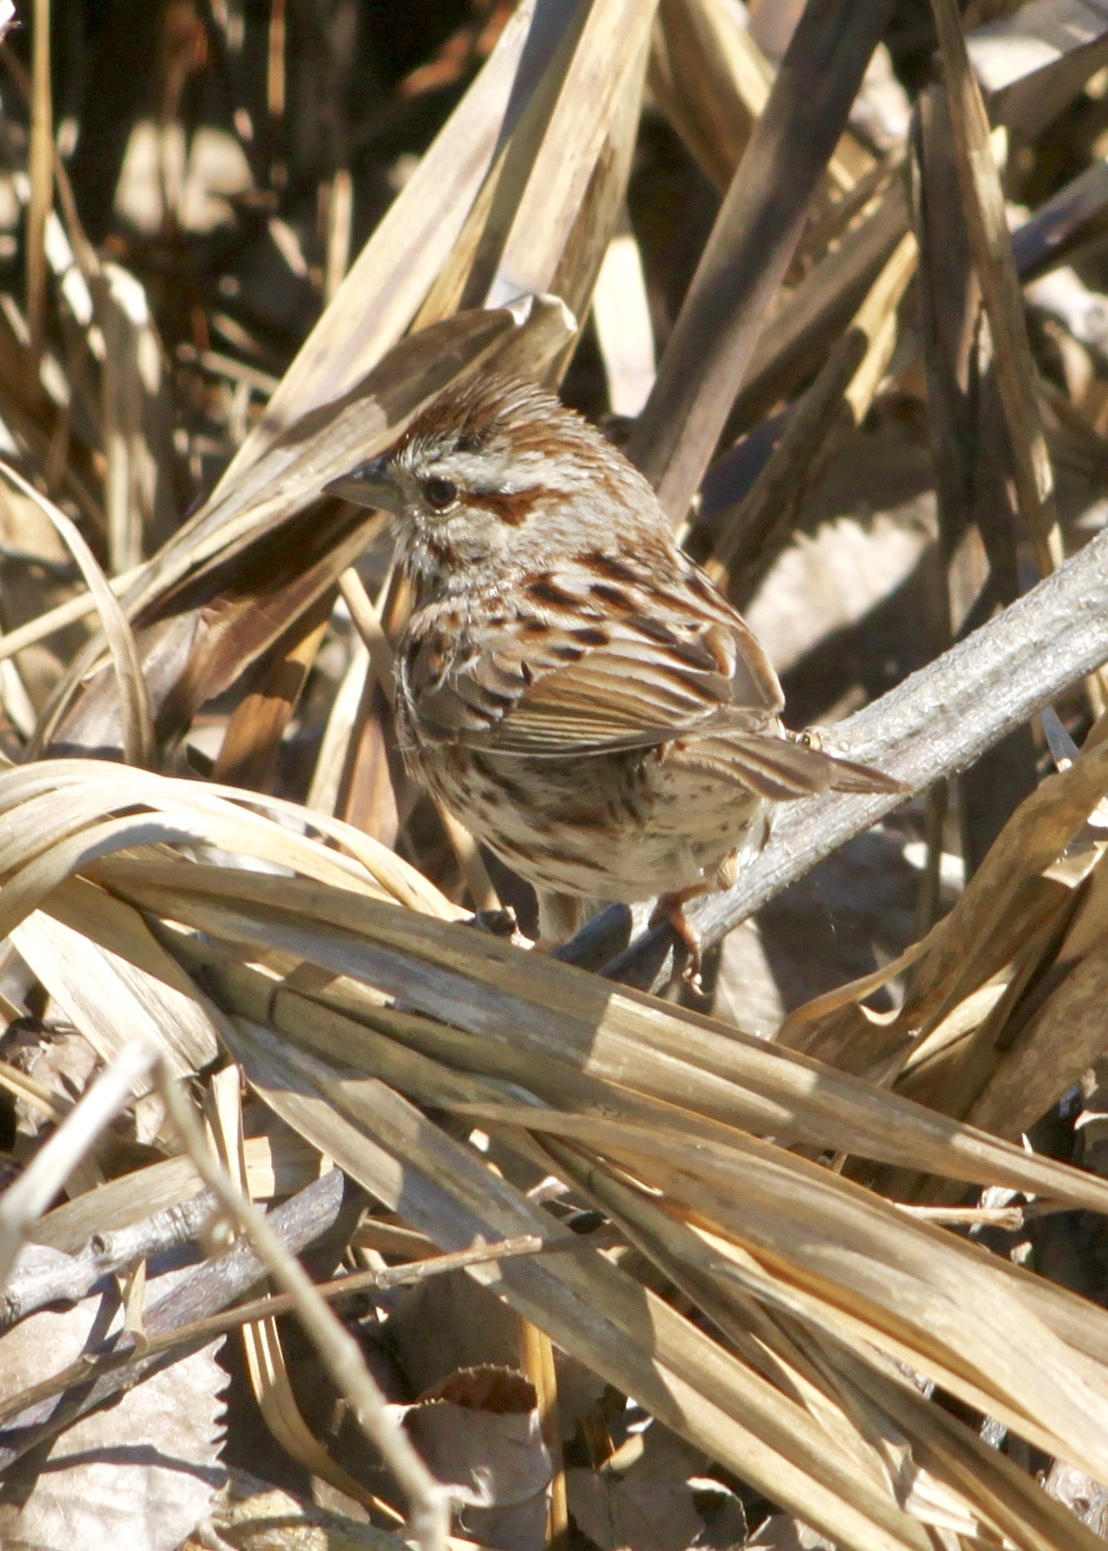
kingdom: Animalia
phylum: Chordata
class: Aves
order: Passeriformes
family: Passerellidae
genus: Melospiza
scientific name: Melospiza melodia
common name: Song sparrow
